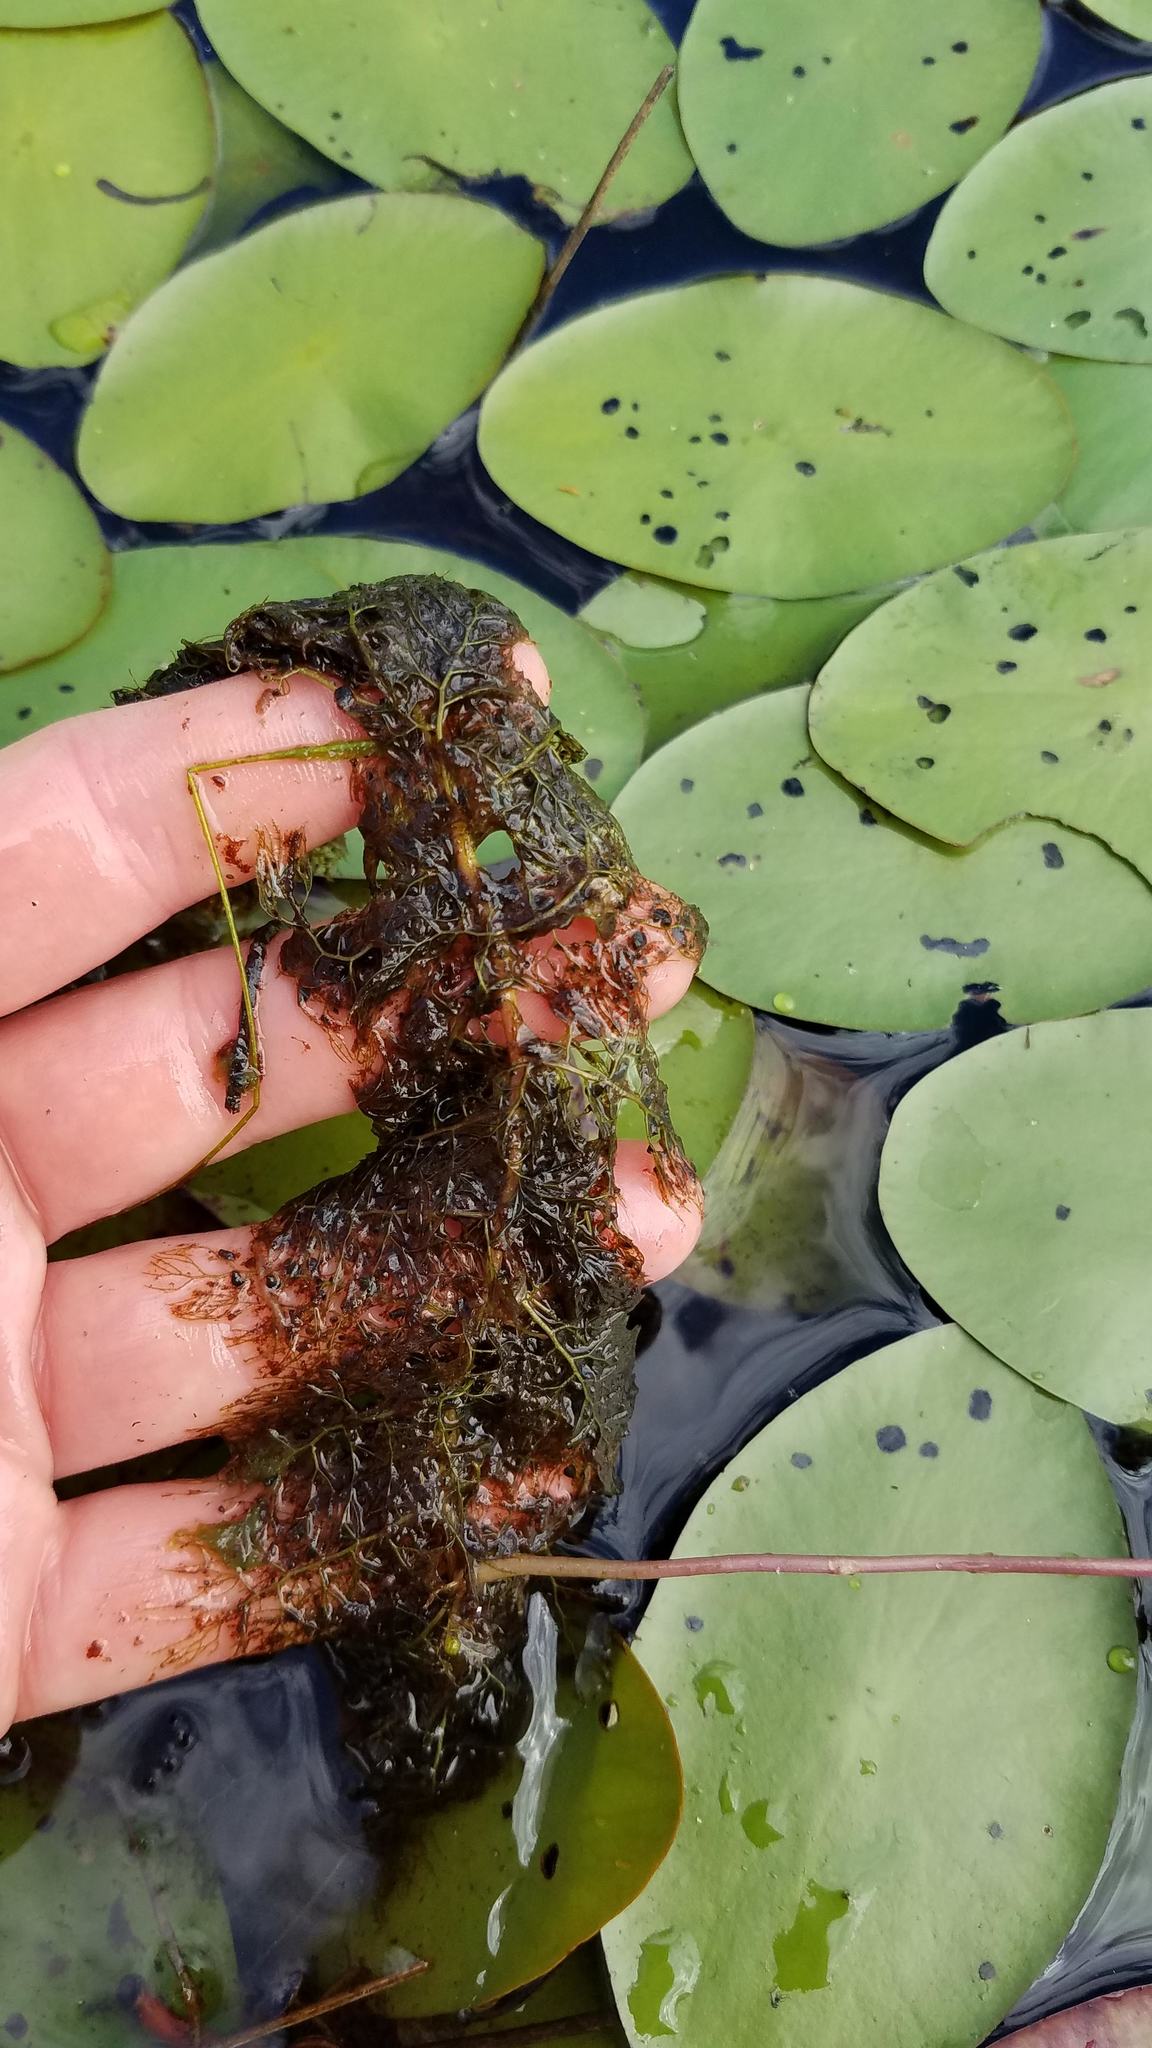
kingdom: Plantae
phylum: Tracheophyta
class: Magnoliopsida
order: Lamiales
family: Lentibulariaceae
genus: Utricularia
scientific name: Utricularia macrorhiza
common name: Common bladderwort
